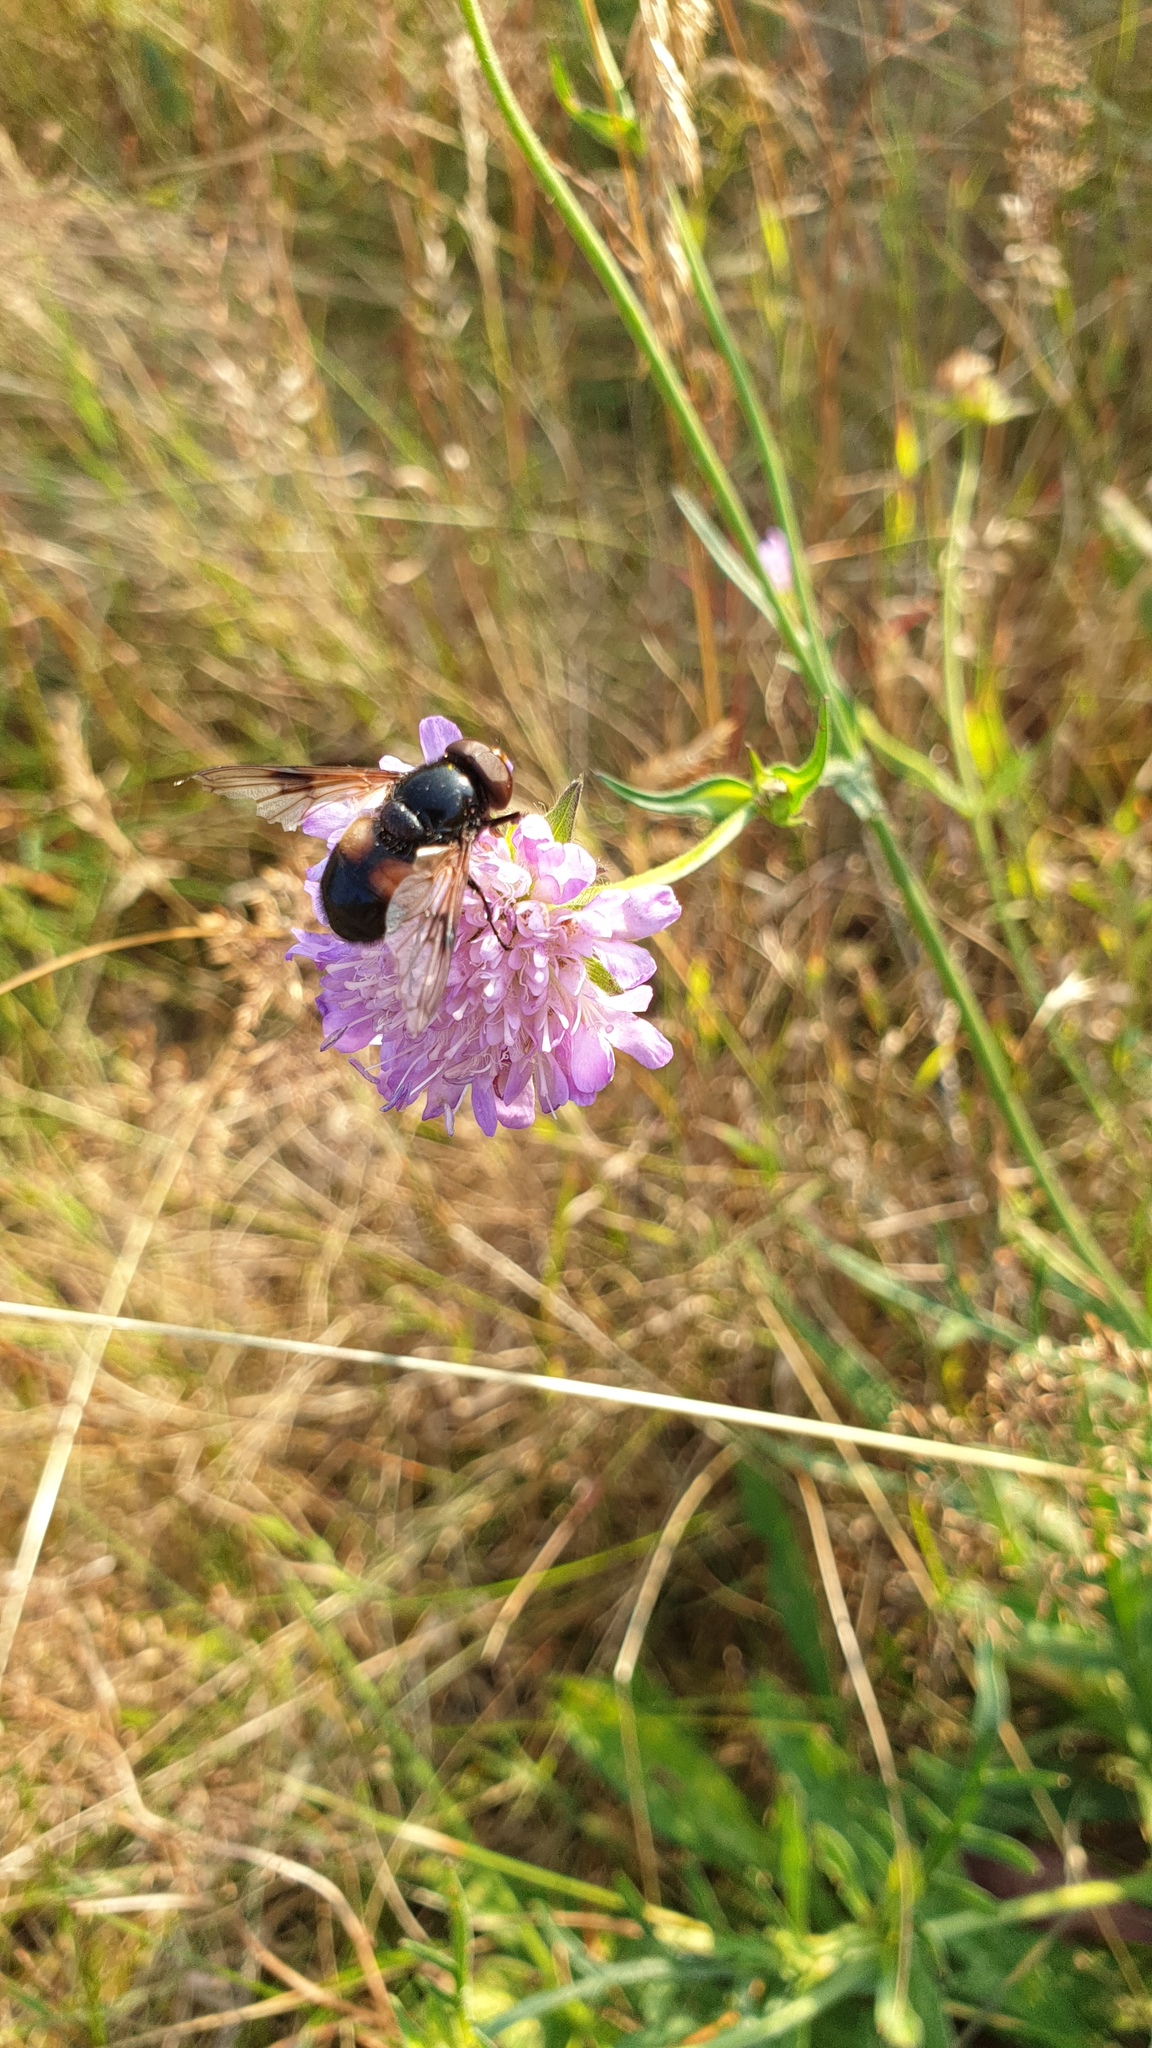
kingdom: Animalia
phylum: Arthropoda
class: Insecta
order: Diptera
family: Syrphidae
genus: Volucella
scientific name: Volucella pellucens
